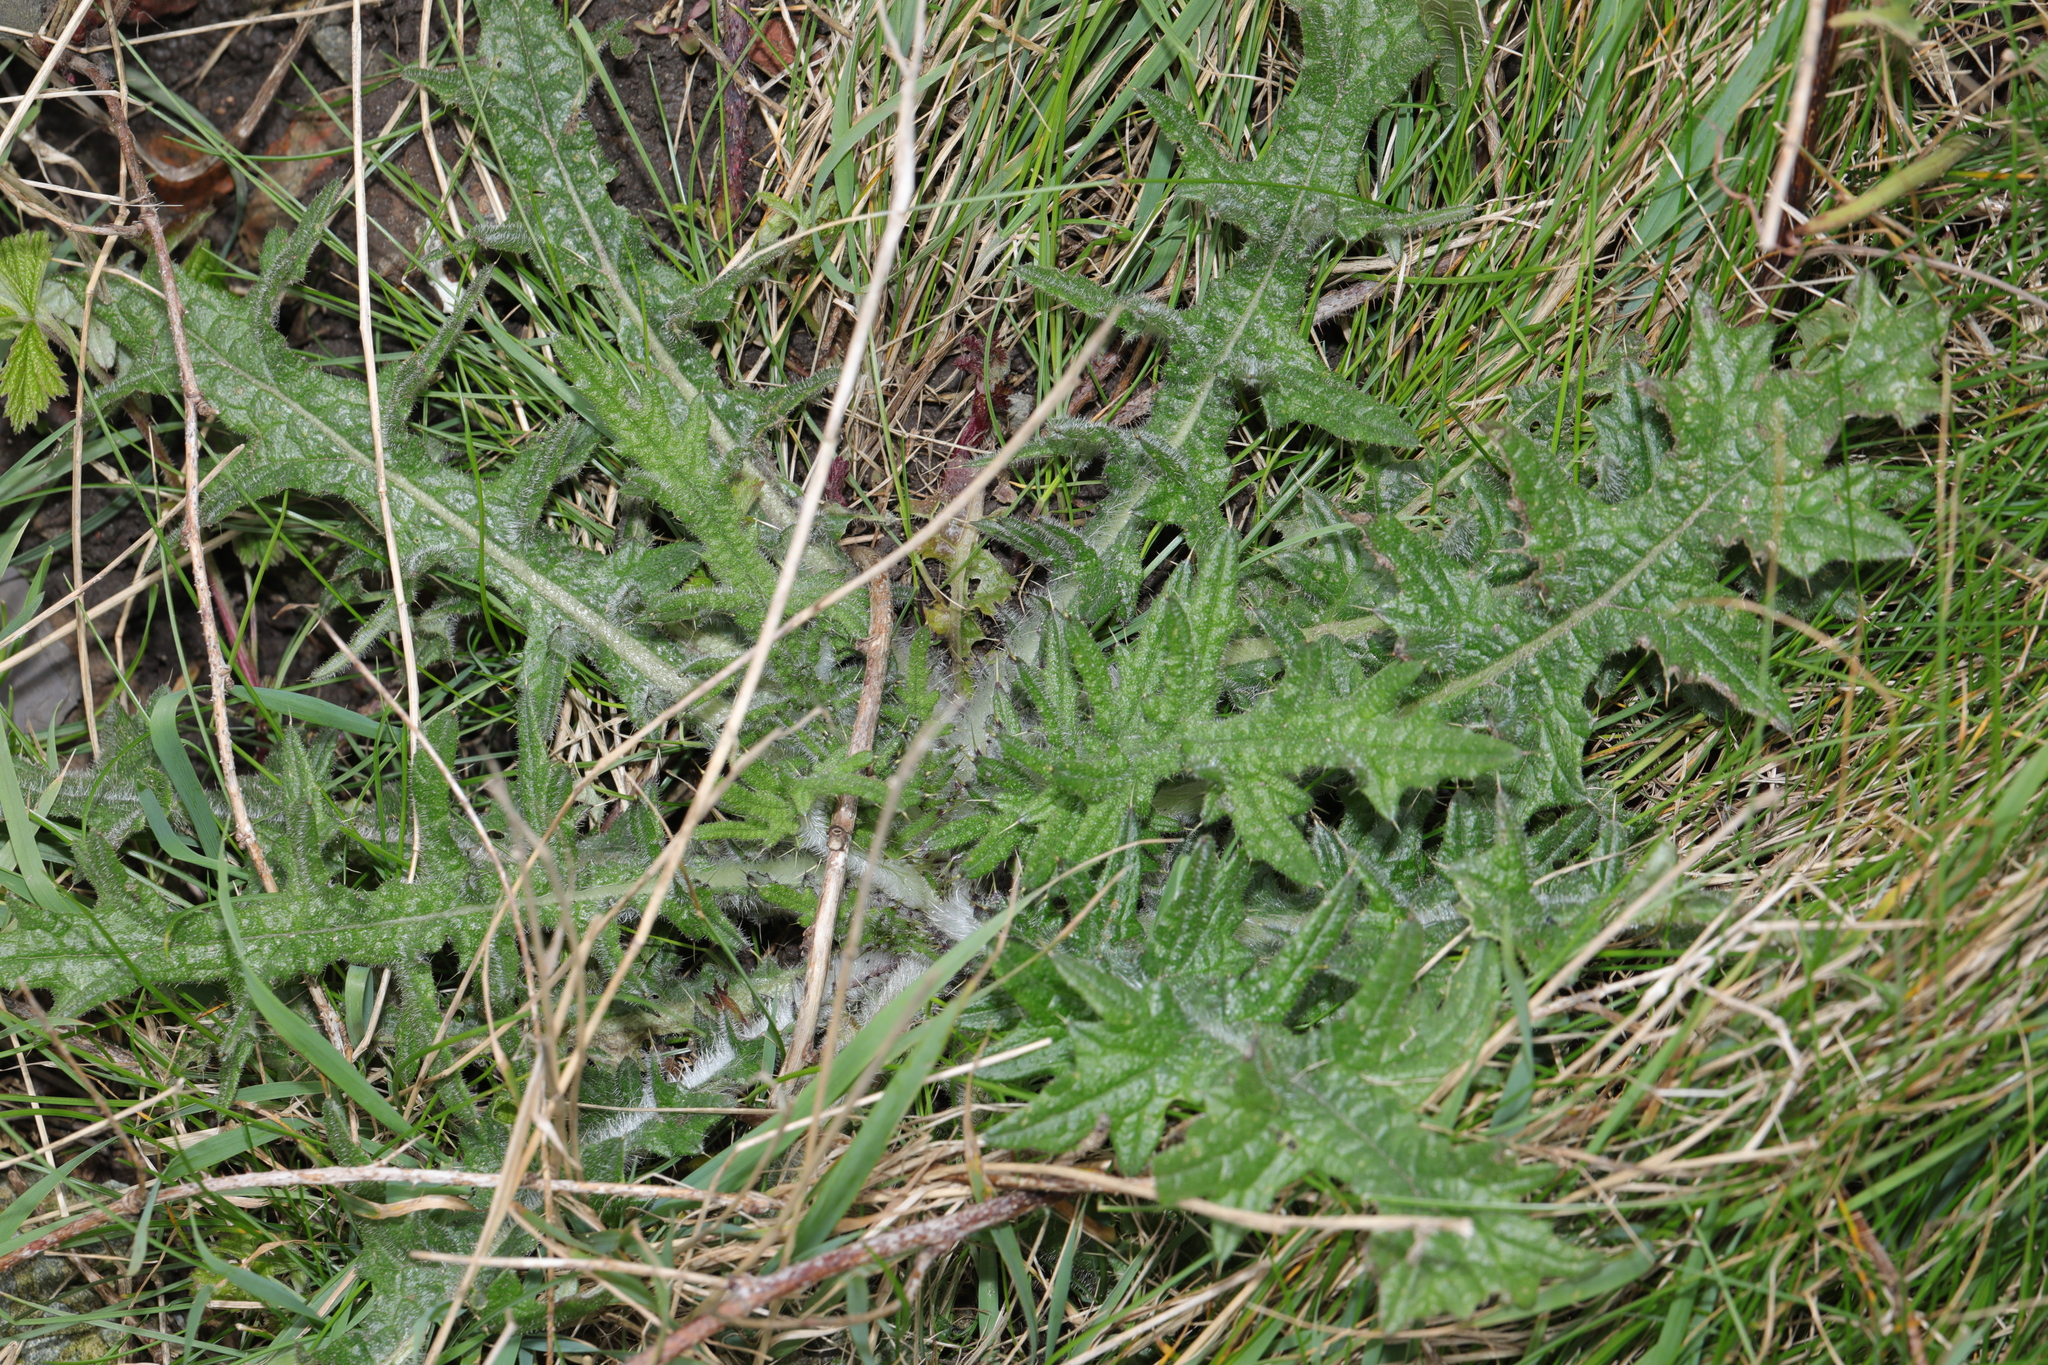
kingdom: Plantae
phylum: Tracheophyta
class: Magnoliopsida
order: Asterales
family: Asteraceae
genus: Cirsium
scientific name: Cirsium vulgare
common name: Bull thistle
